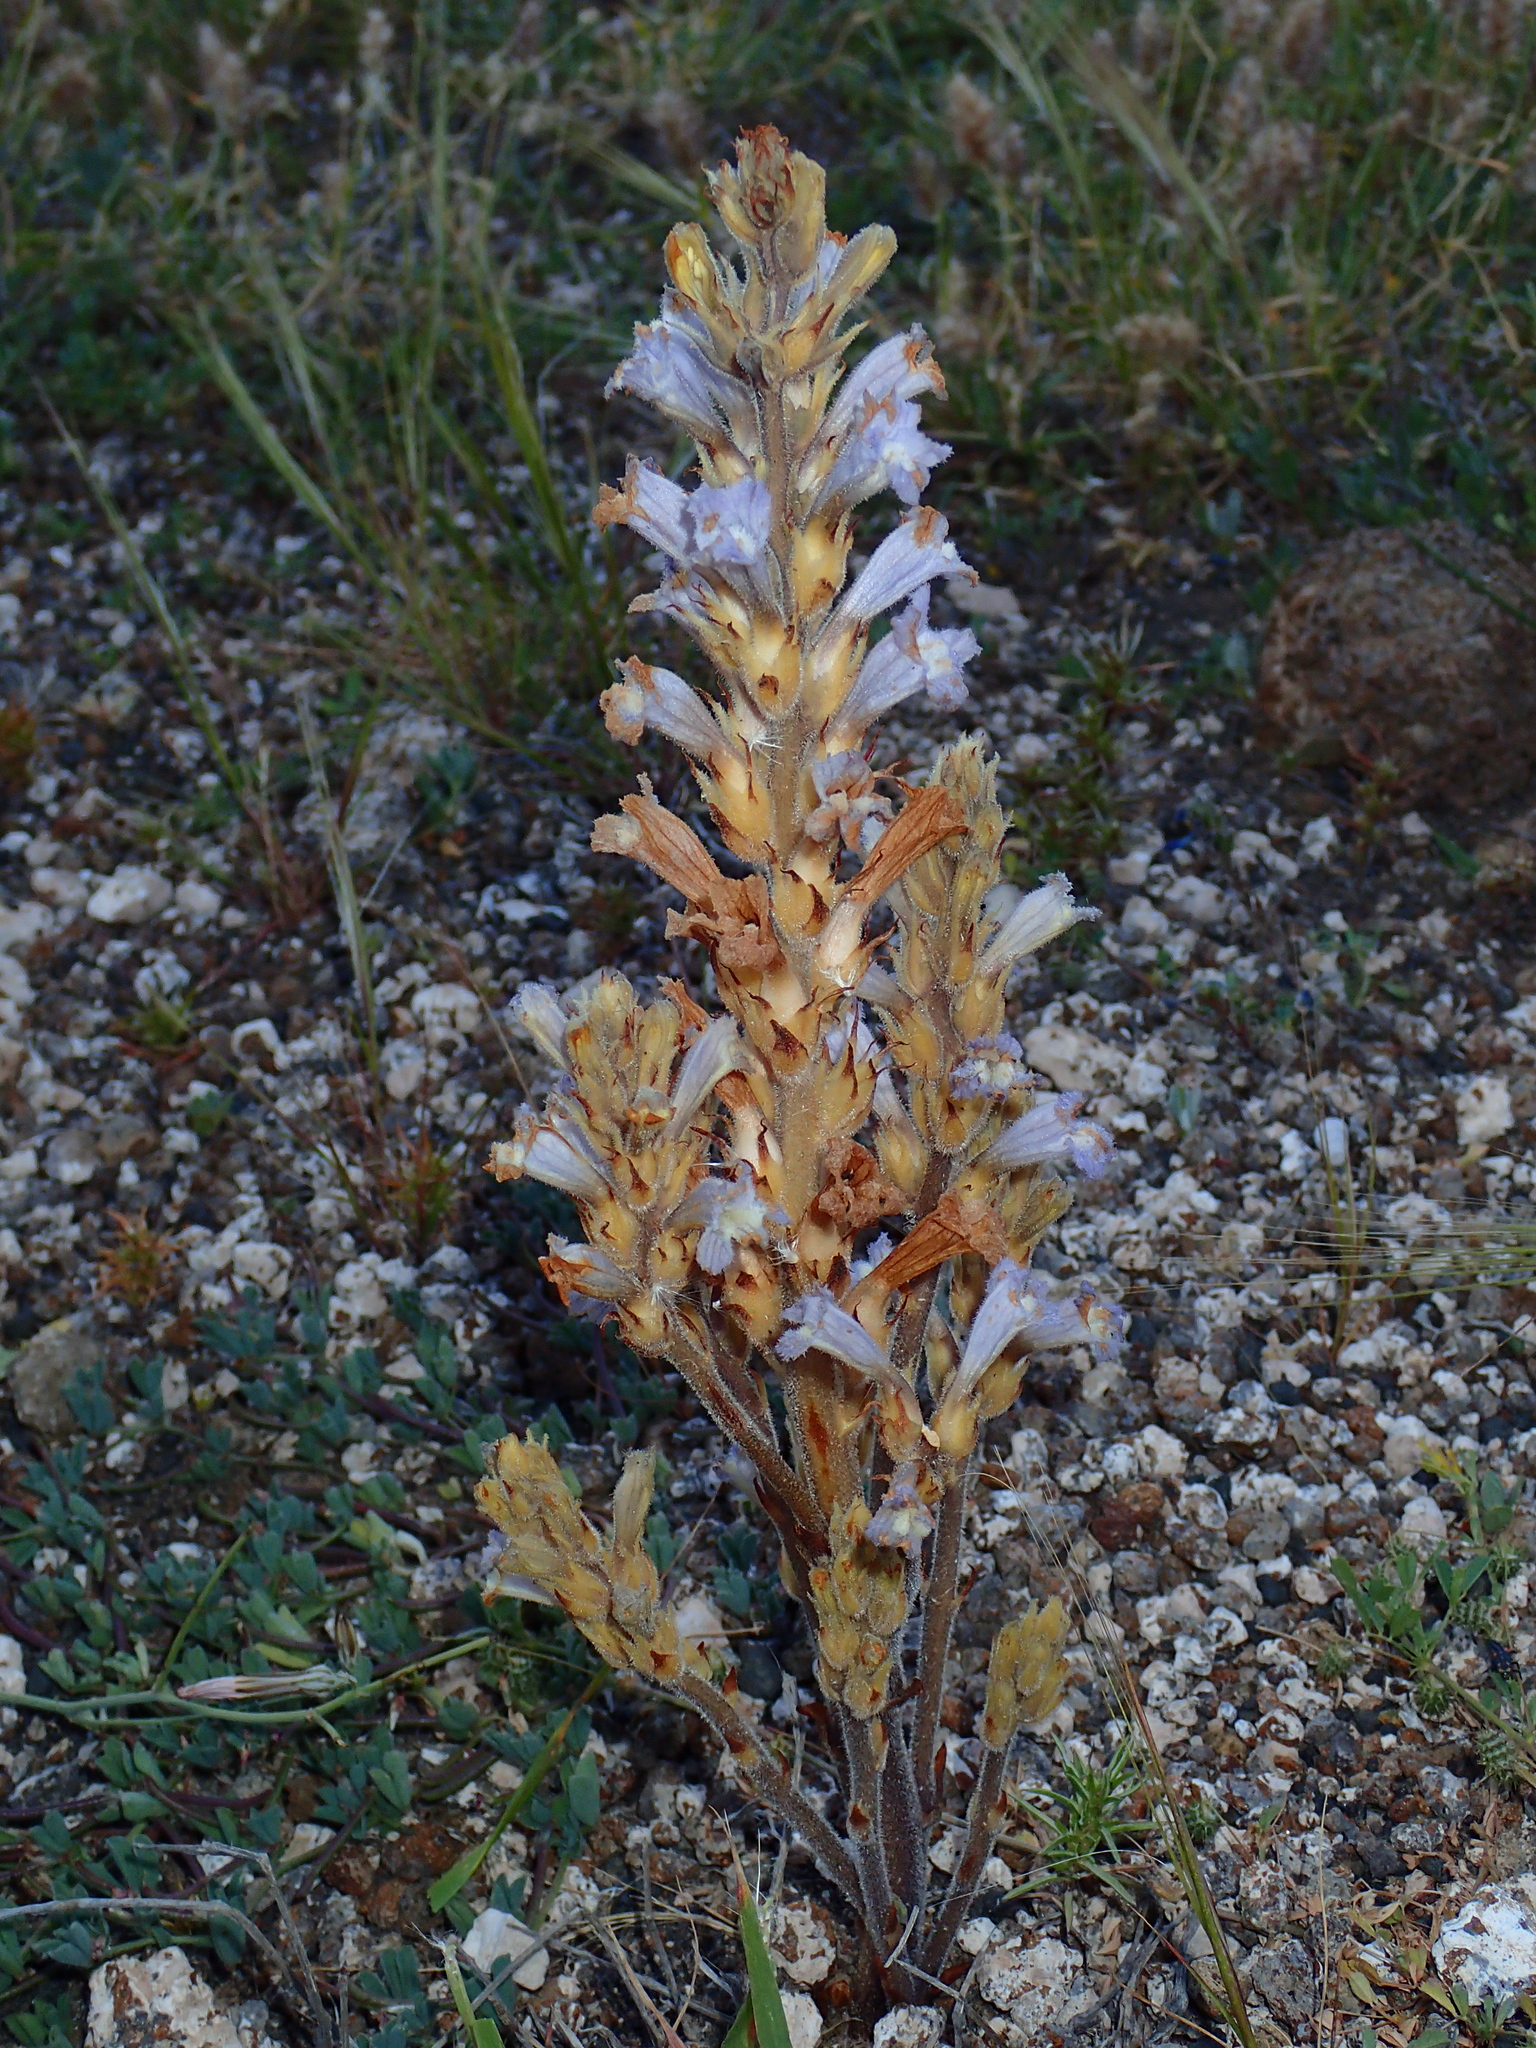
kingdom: Plantae
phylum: Tracheophyta
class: Magnoliopsida
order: Lamiales
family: Orobanchaceae
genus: Phelipanche
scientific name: Phelipanche gratiosa
